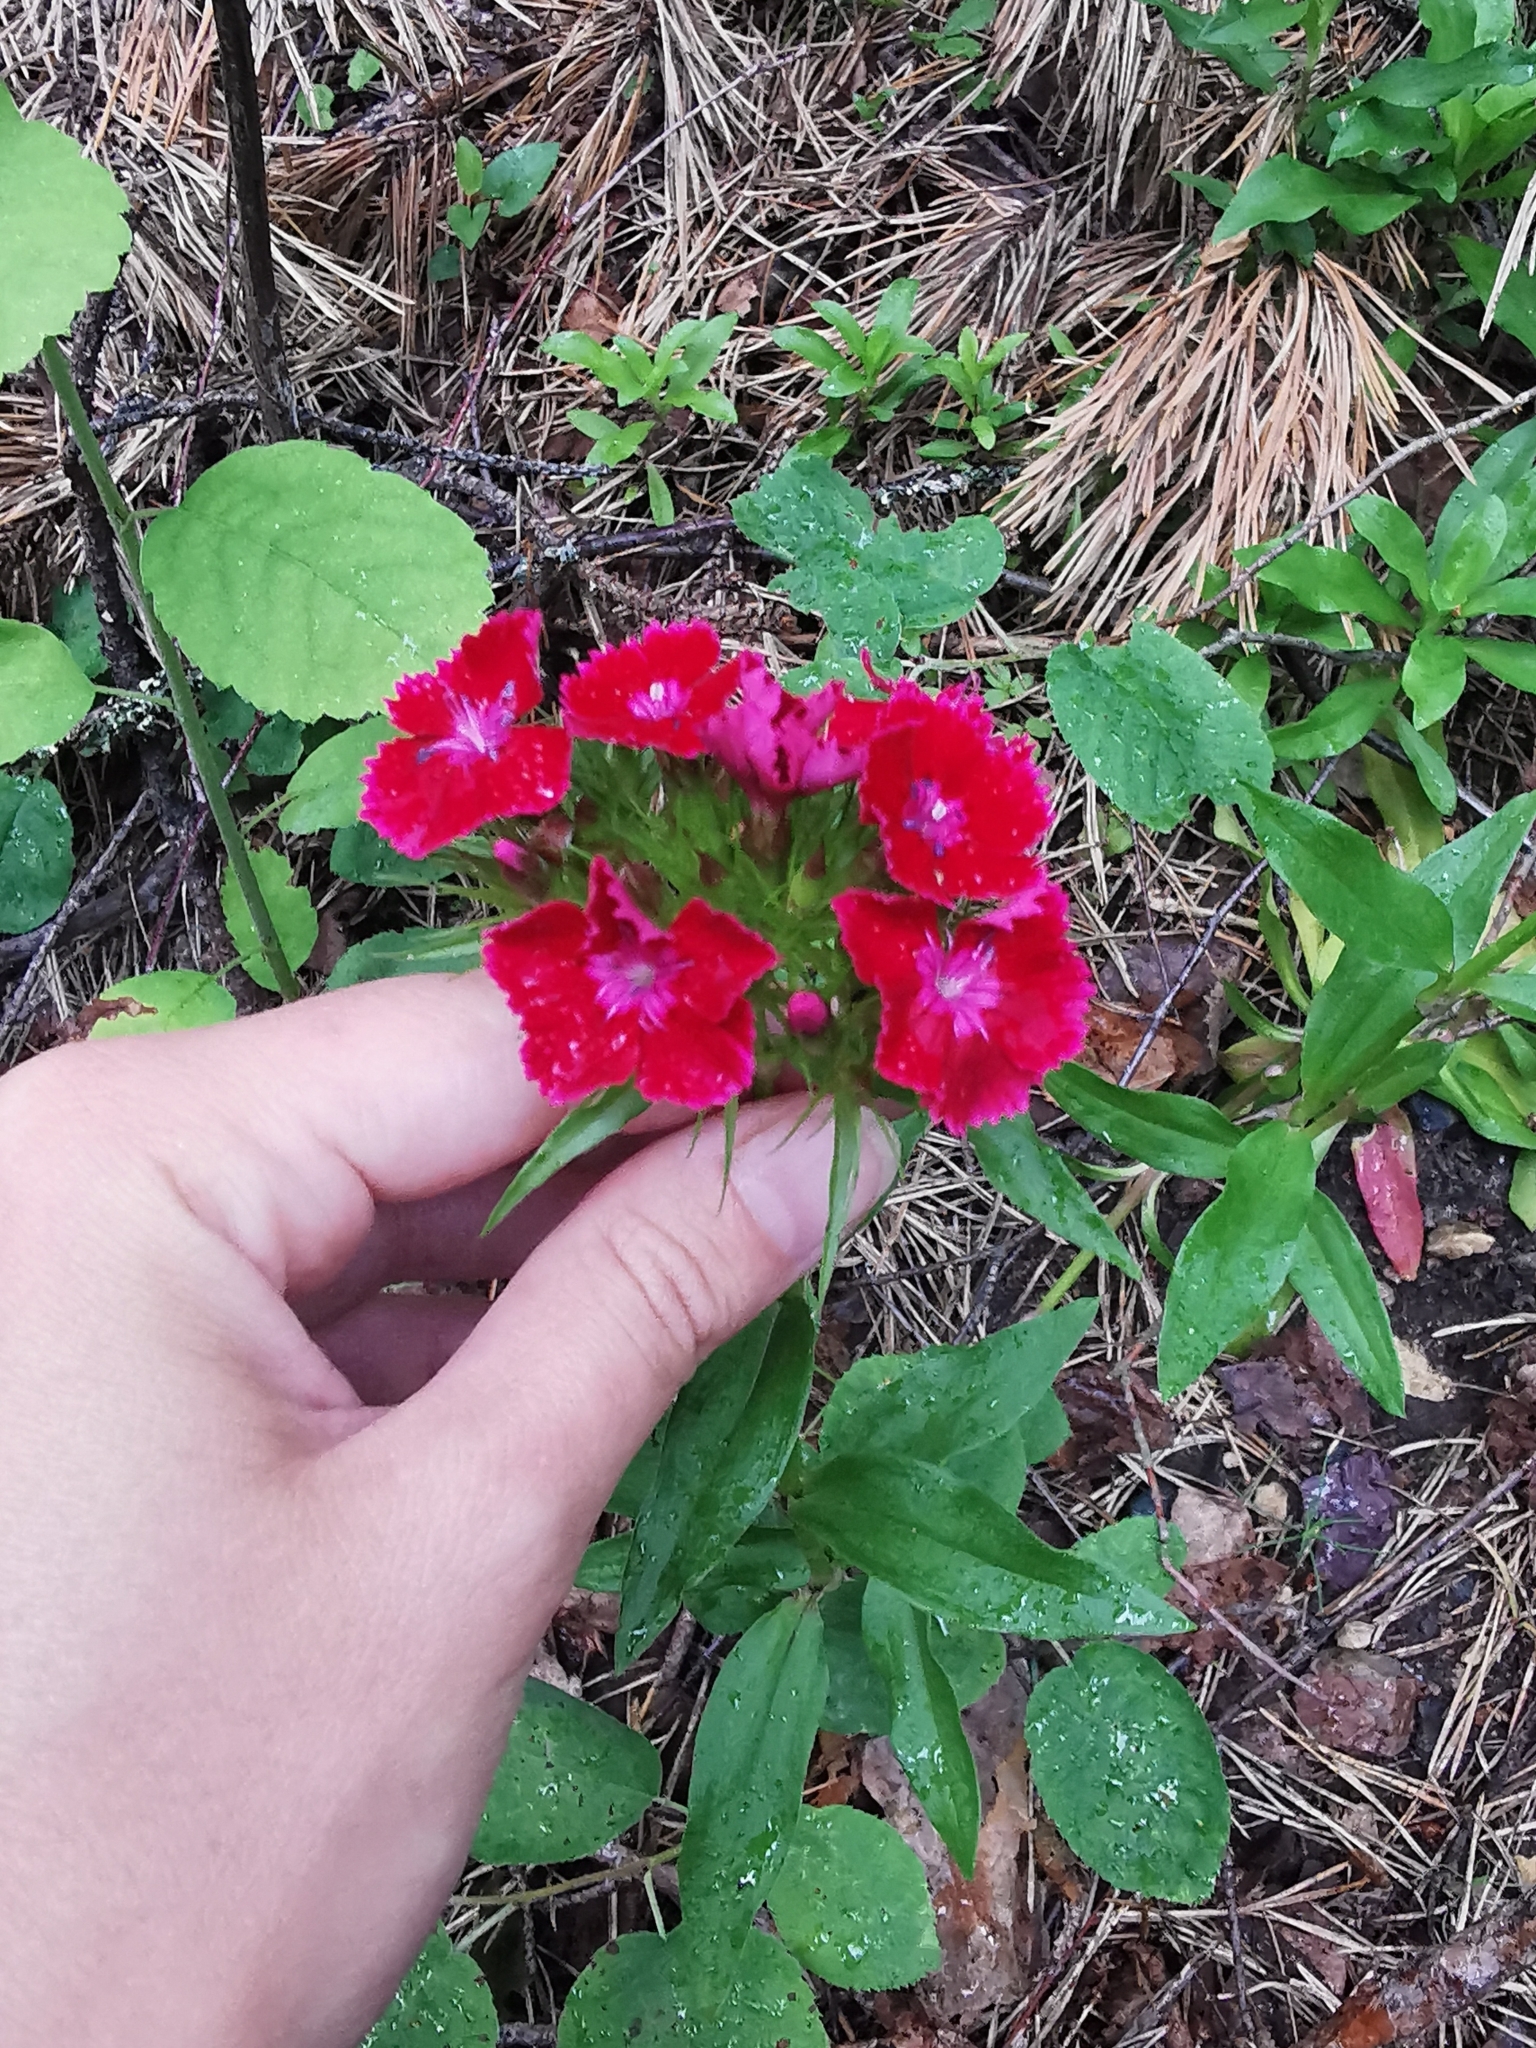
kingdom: Plantae
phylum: Tracheophyta
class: Magnoliopsida
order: Caryophyllales
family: Caryophyllaceae
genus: Dianthus
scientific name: Dianthus barbatus
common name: Sweet-william
